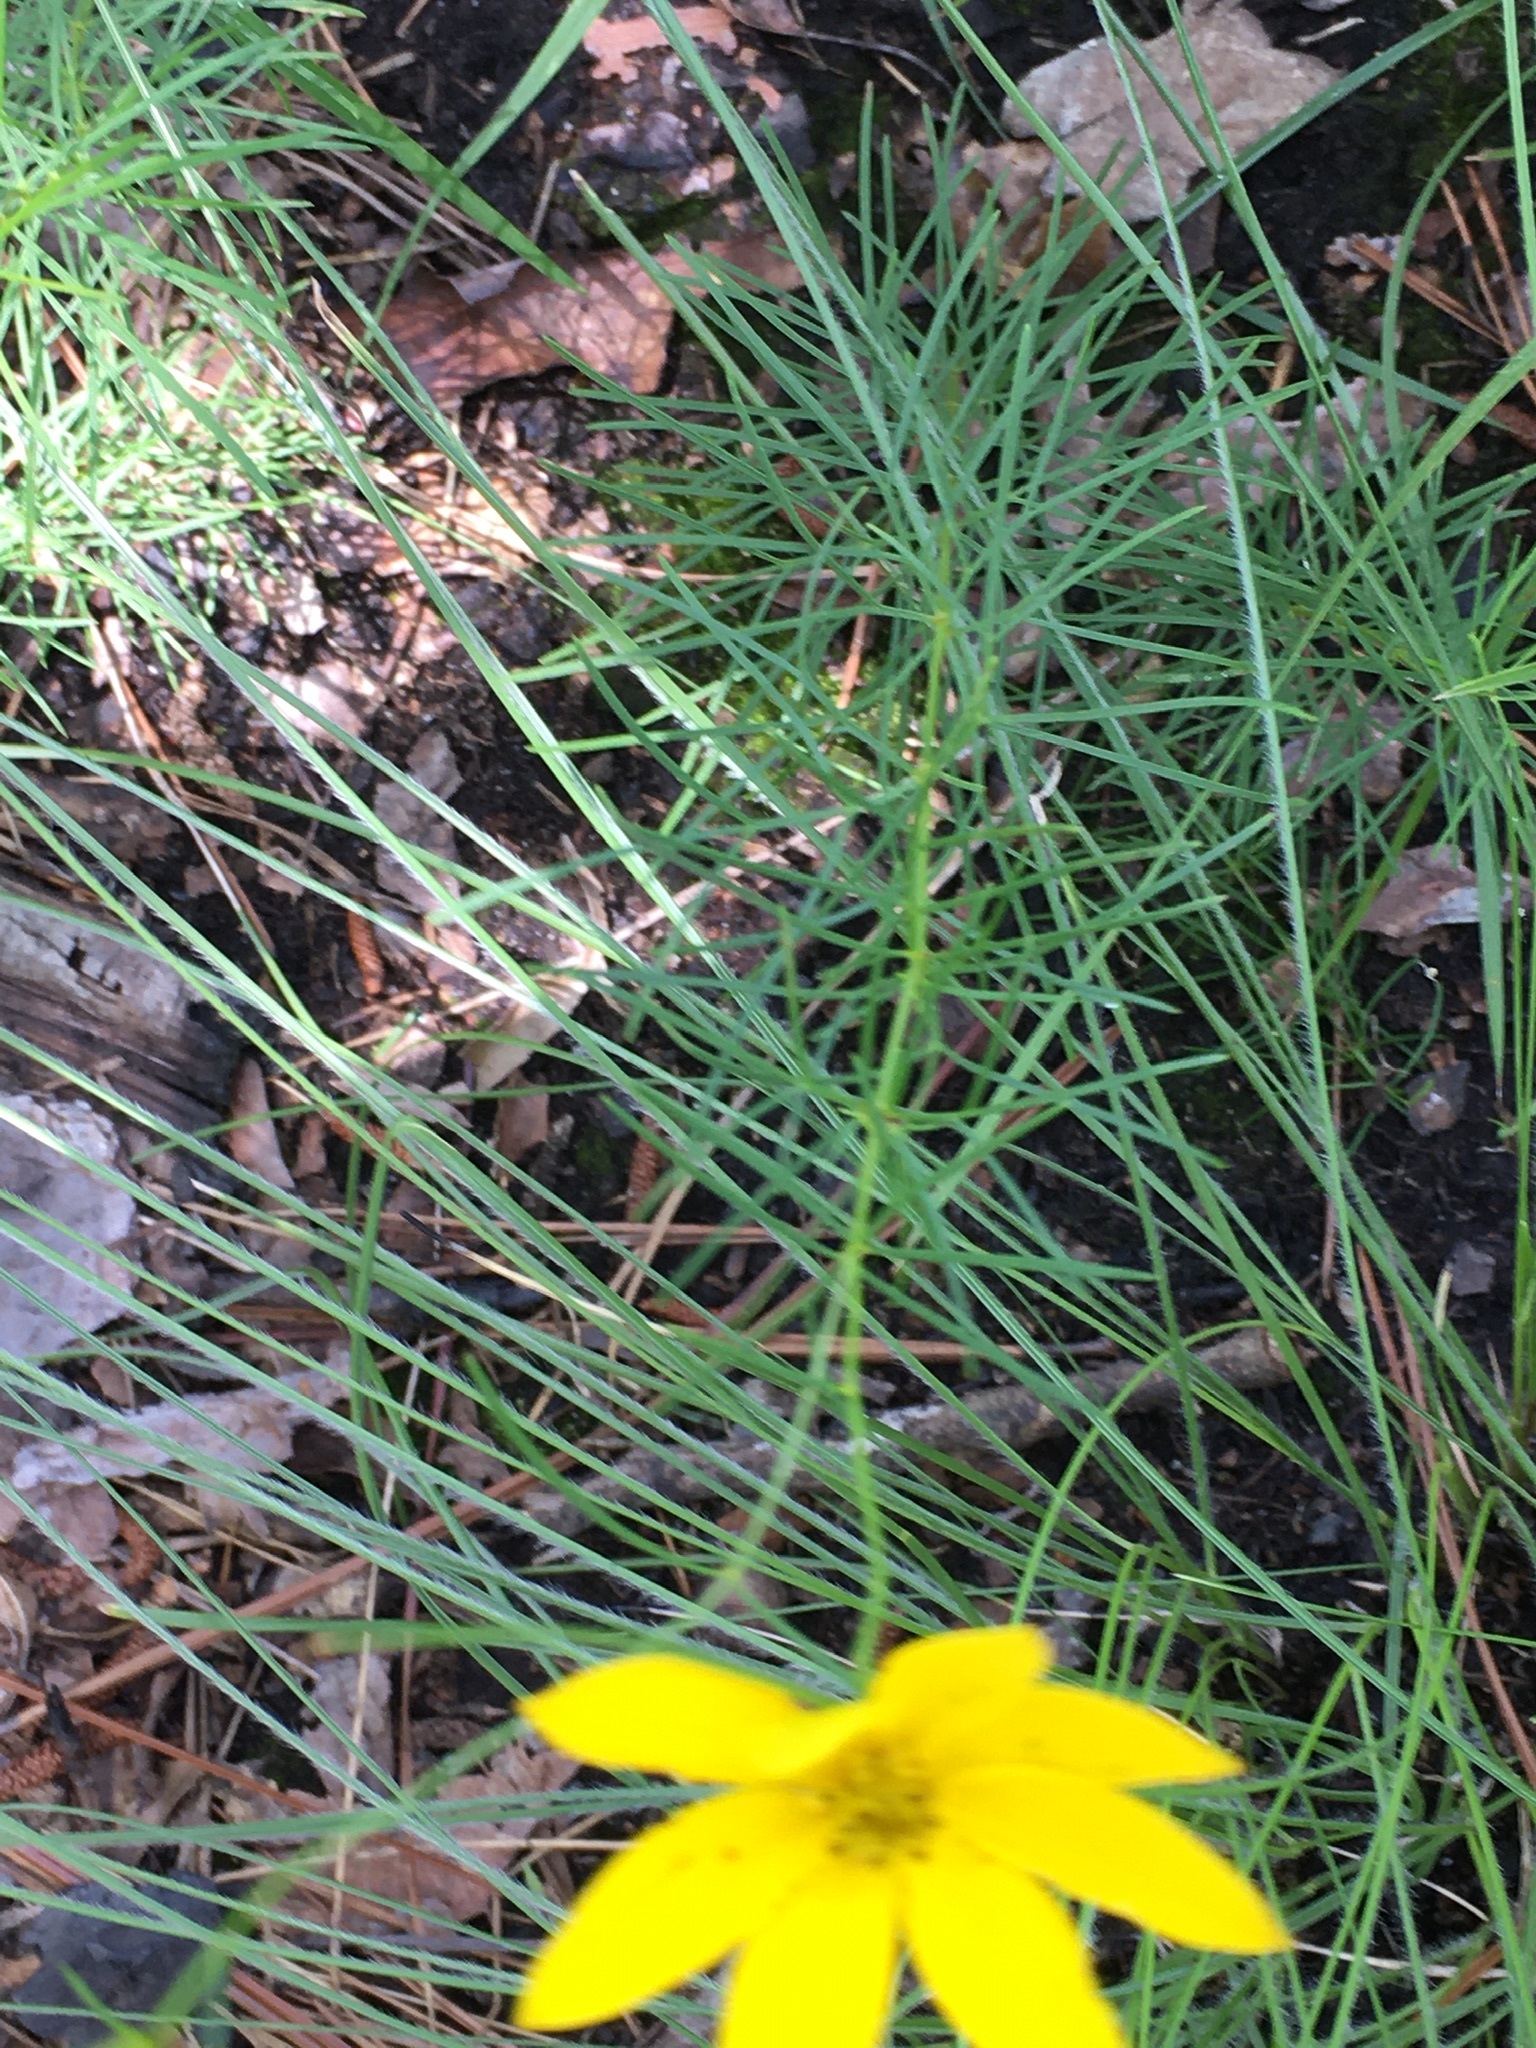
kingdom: Plantae
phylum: Tracheophyta
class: Magnoliopsida
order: Asterales
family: Asteraceae
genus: Coreopsis
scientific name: Coreopsis verticillata
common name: Whorled tickseed
